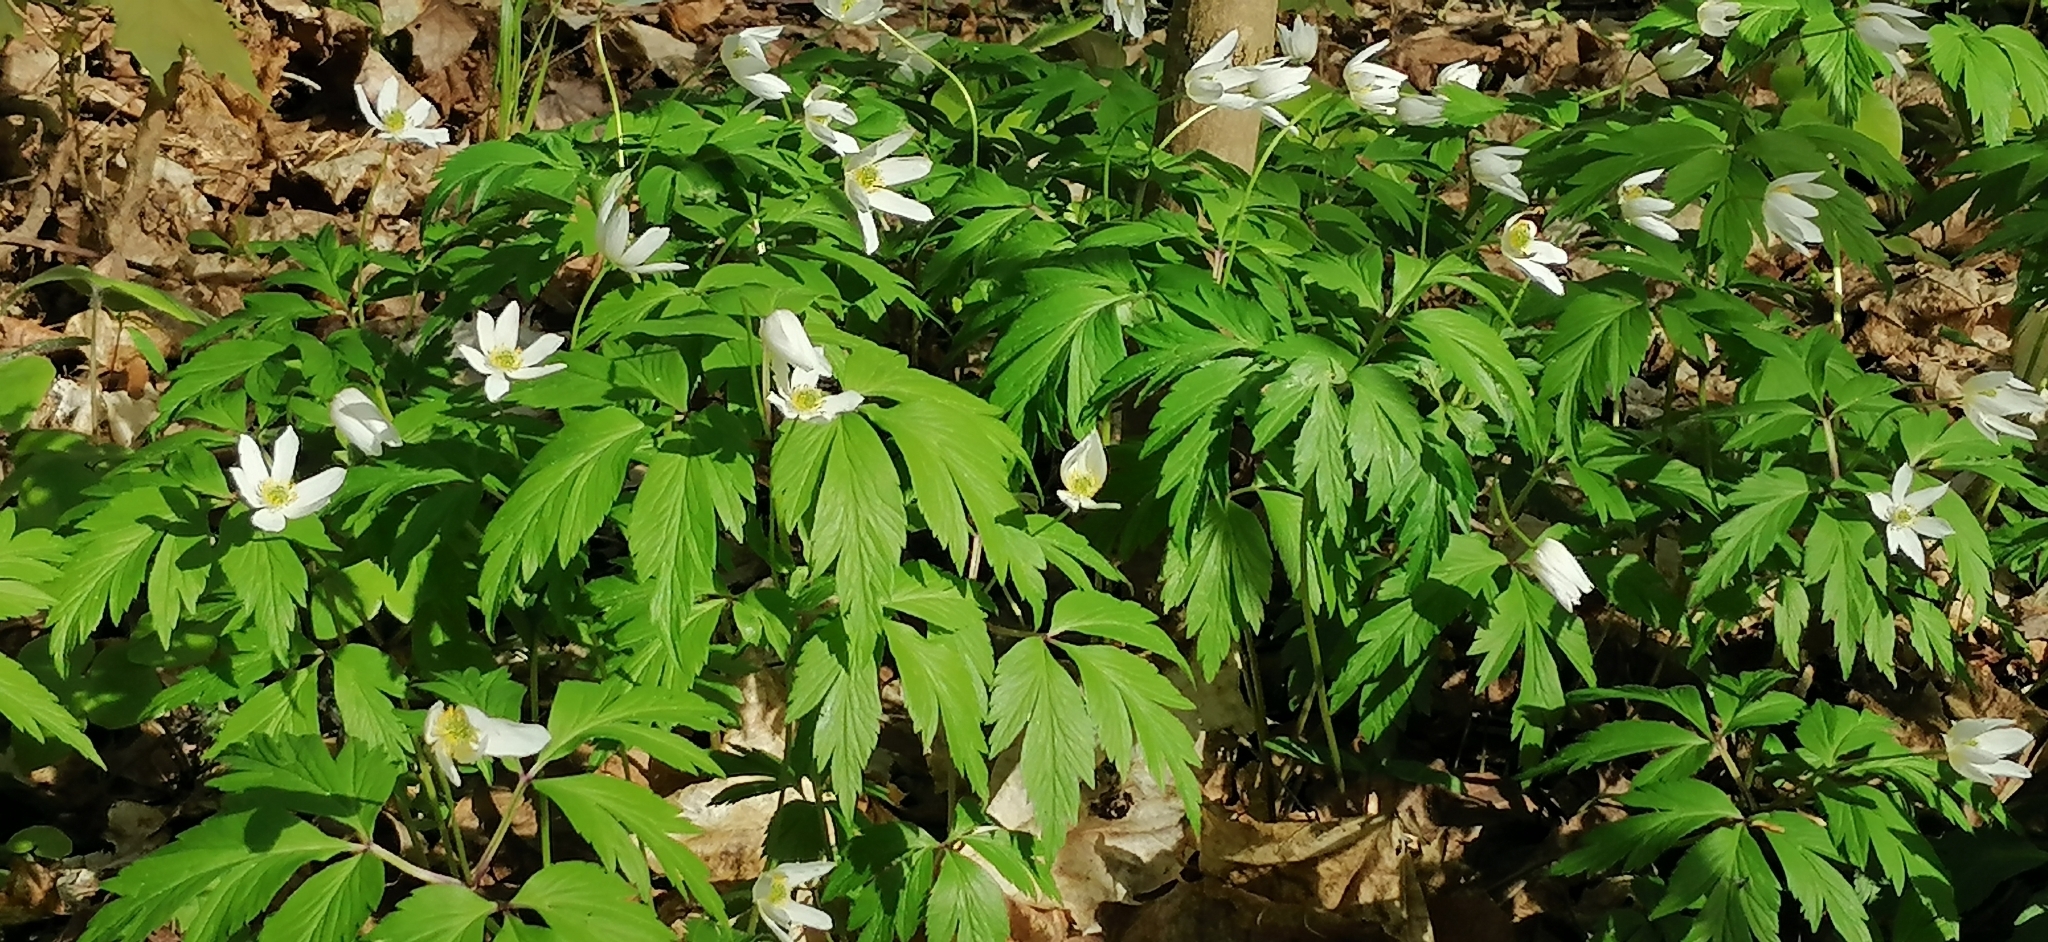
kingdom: Plantae
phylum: Tracheophyta
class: Magnoliopsida
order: Ranunculales
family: Ranunculaceae
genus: Anemone
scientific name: Anemone nemorosa
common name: Wood anemone
